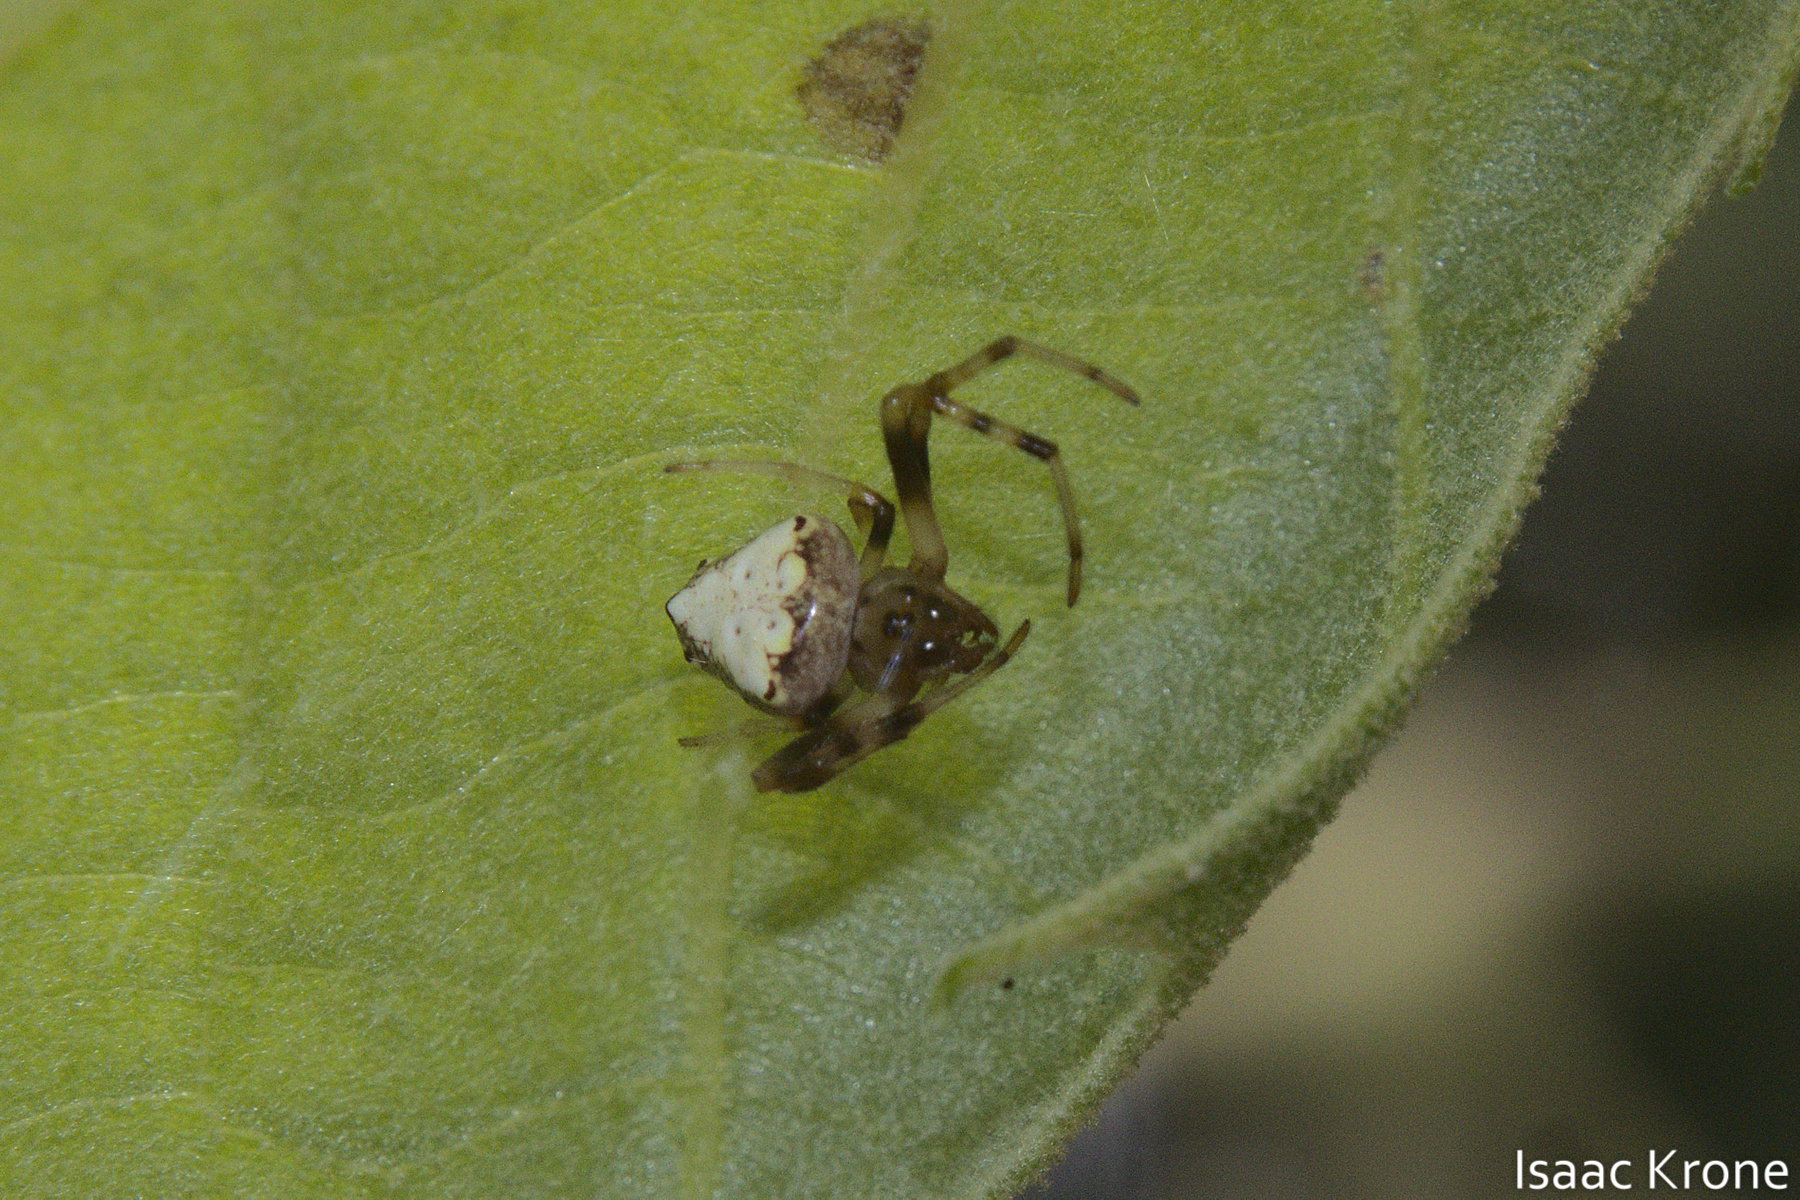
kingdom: Animalia
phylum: Arthropoda
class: Arachnida
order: Araneae
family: Araneidae
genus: Verrucosa
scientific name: Verrucosa arenata
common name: Orb weavers
